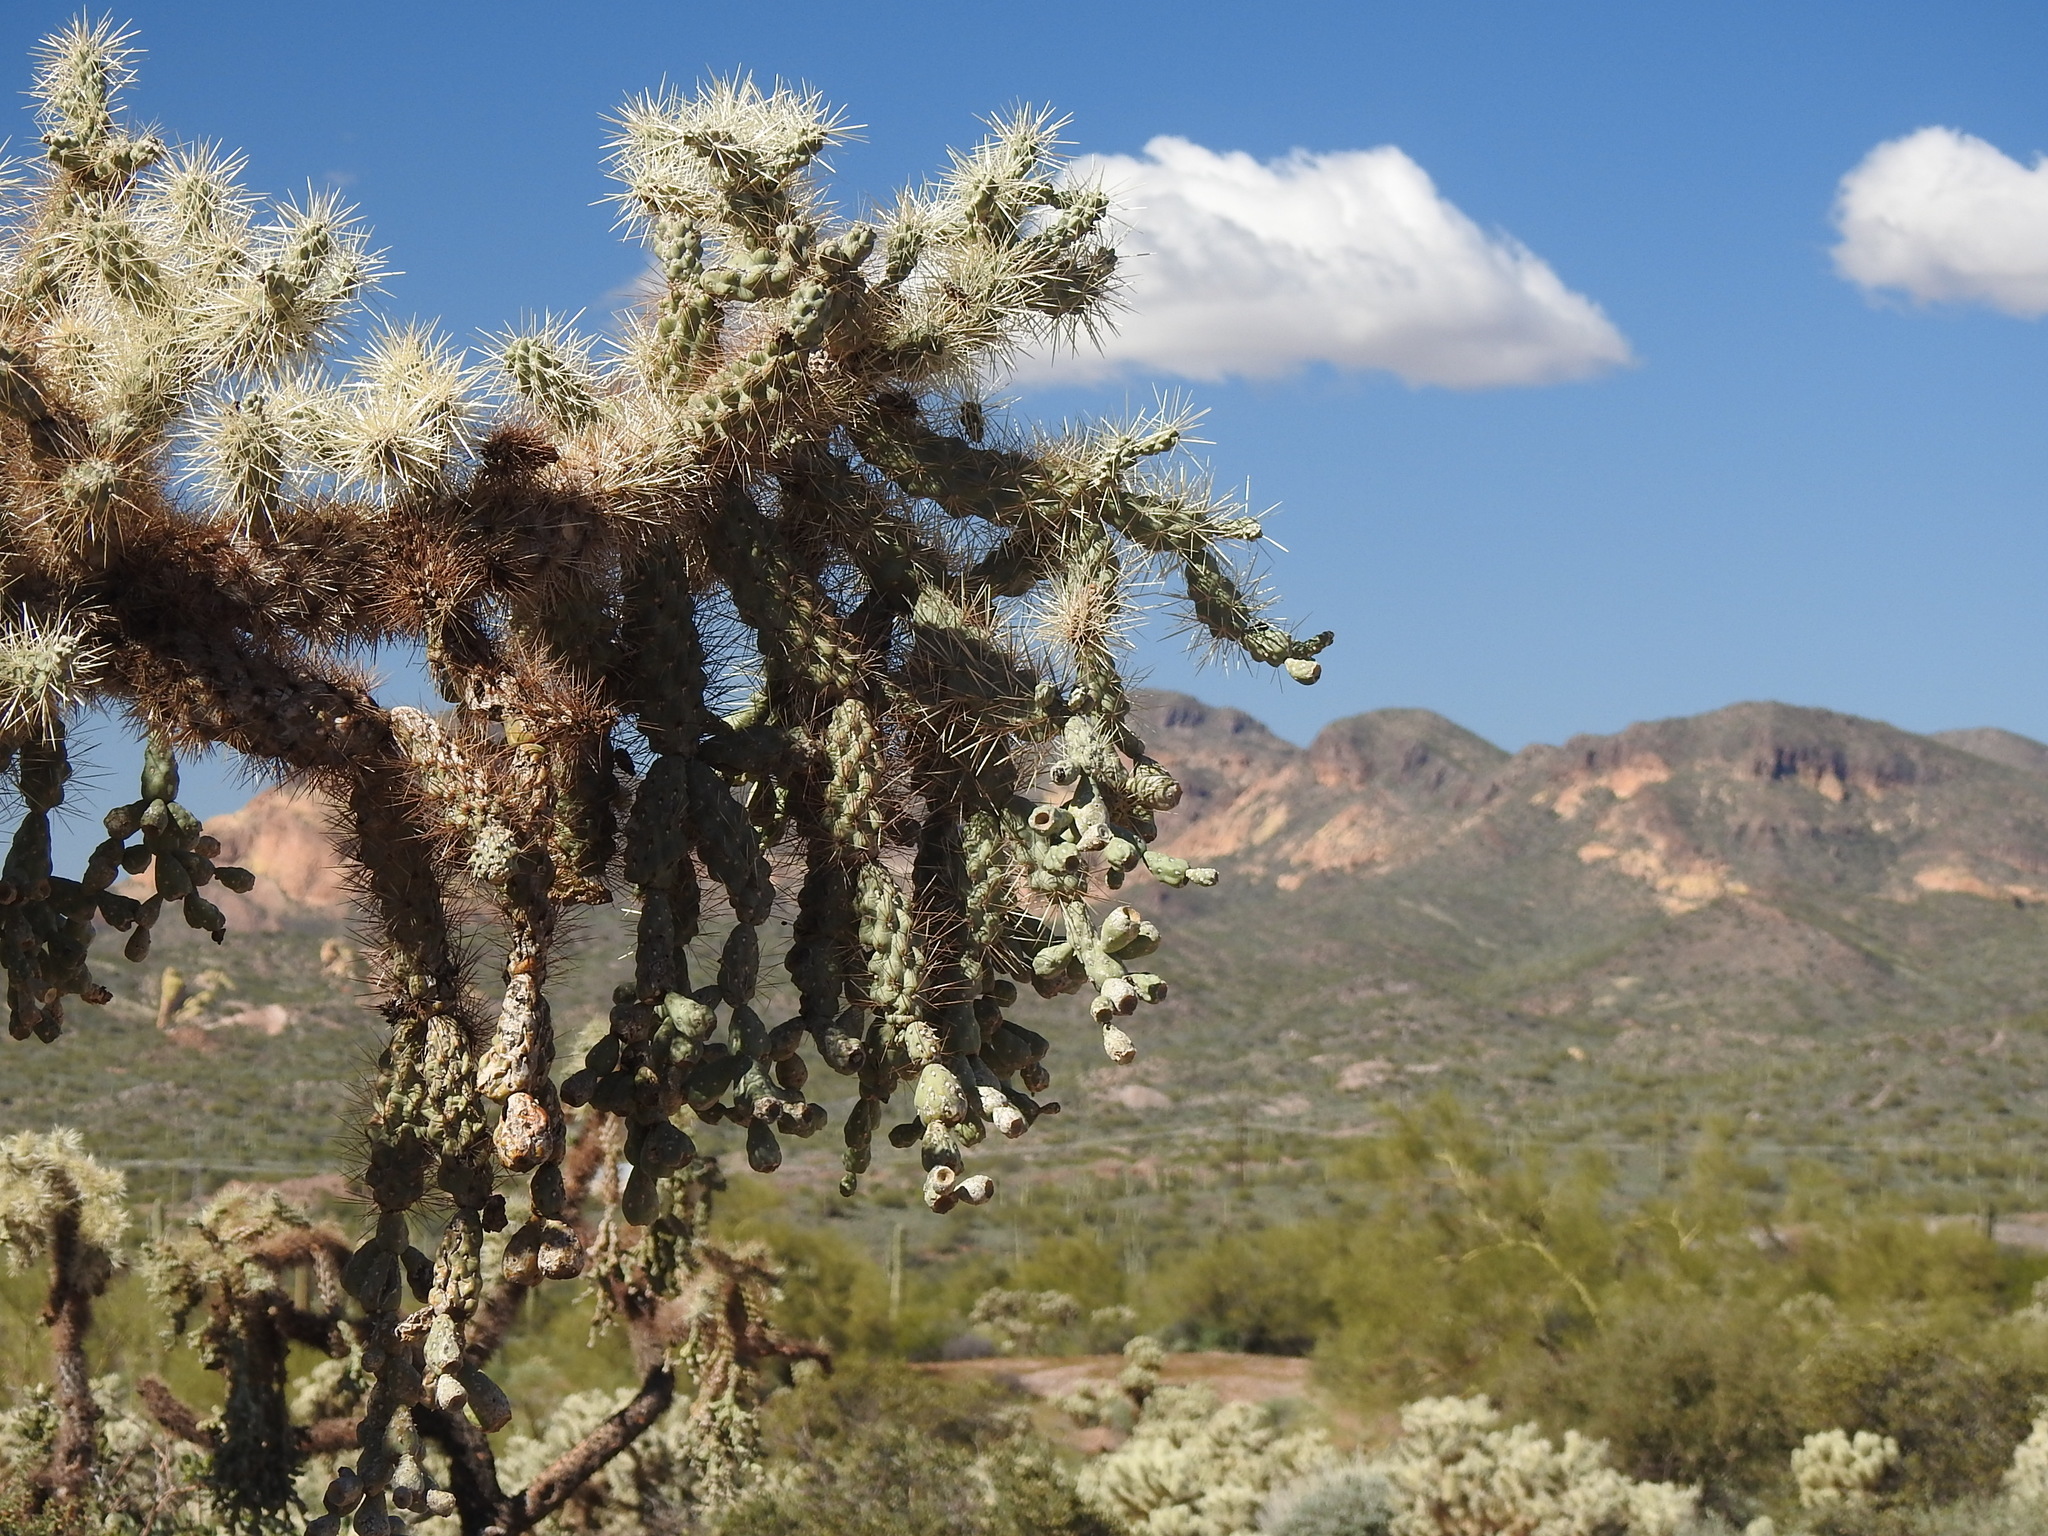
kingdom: Plantae
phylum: Tracheophyta
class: Magnoliopsida
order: Caryophyllales
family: Cactaceae
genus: Cylindropuntia
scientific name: Cylindropuntia fulgida
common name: Jumping cholla
